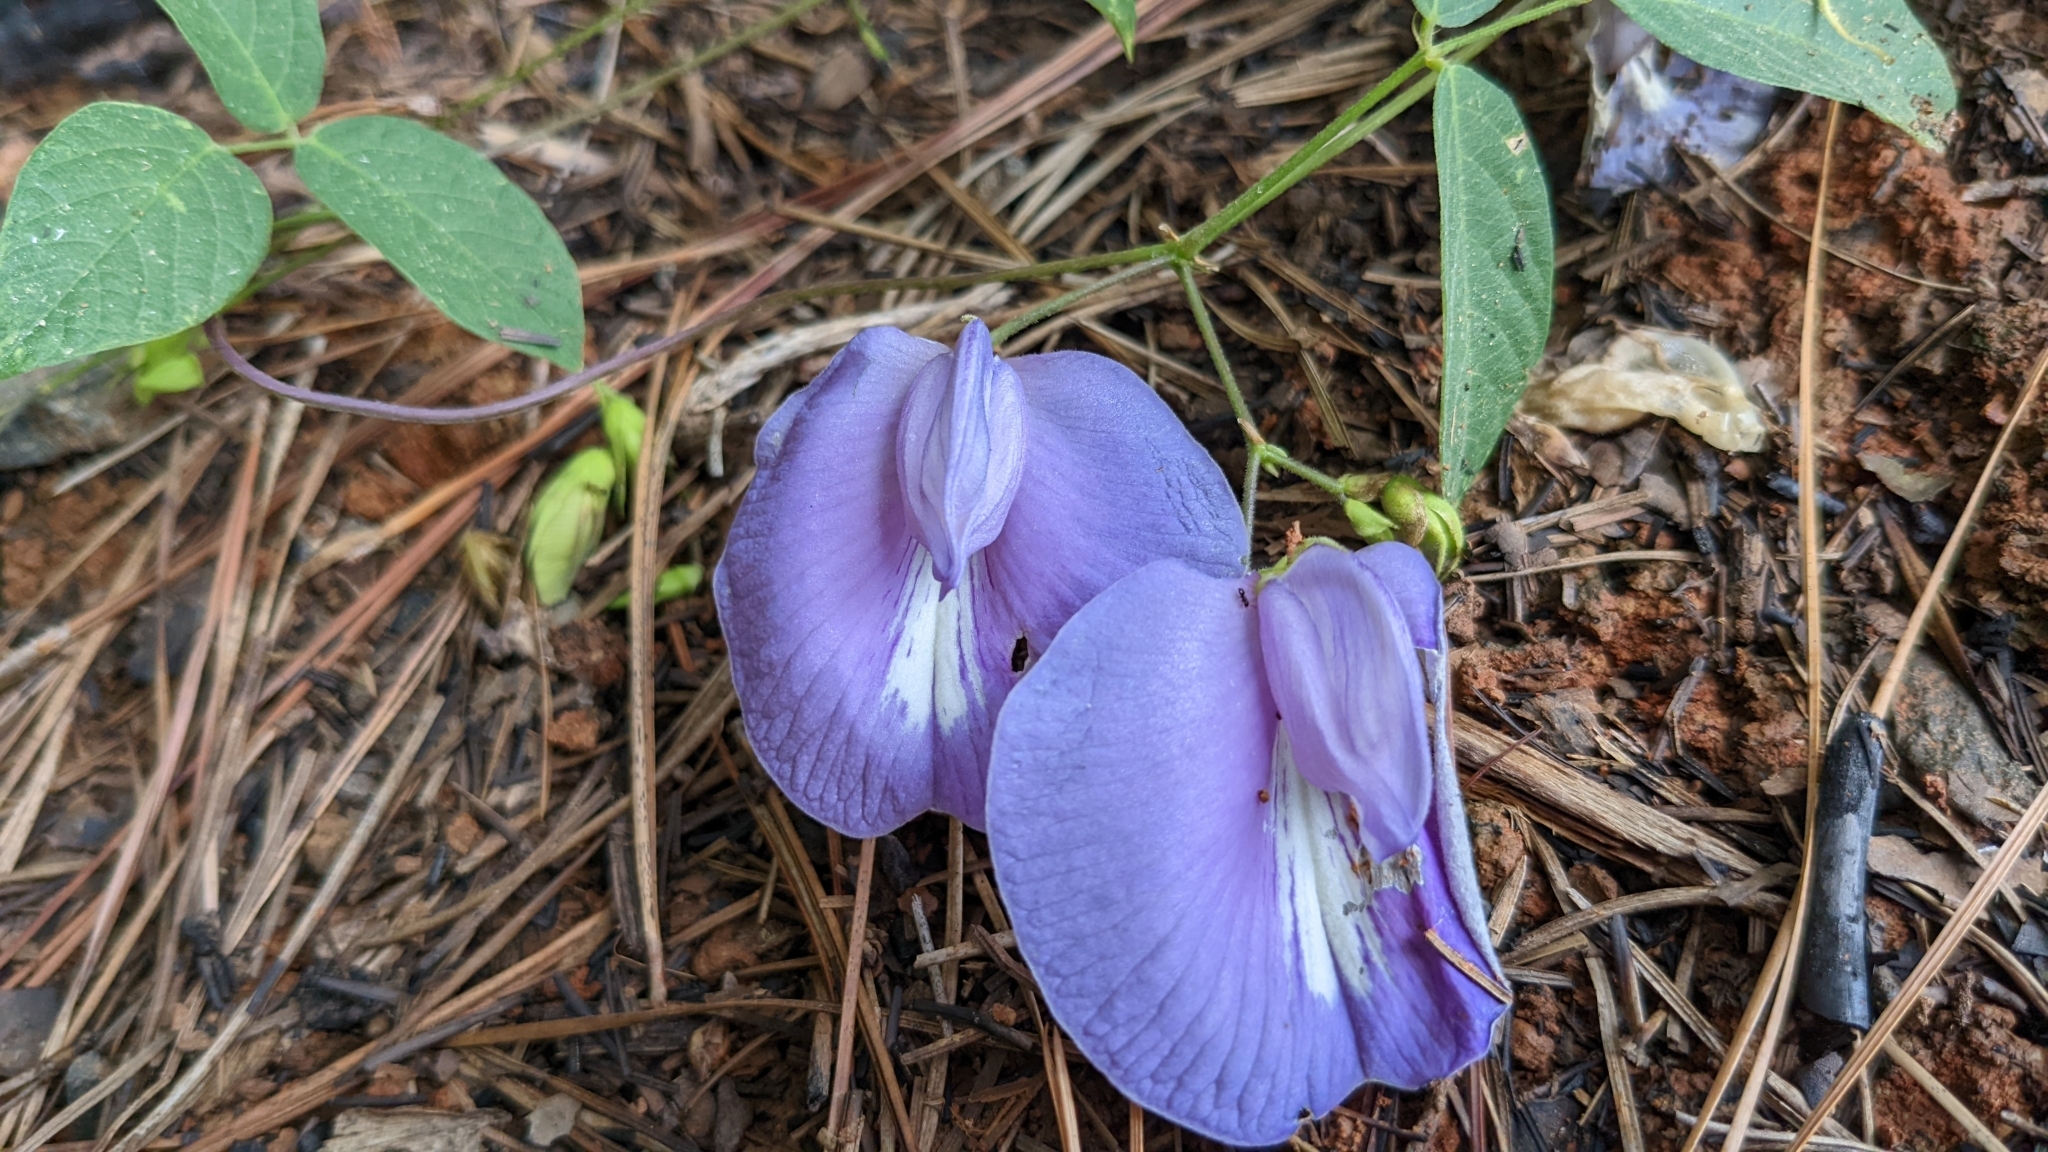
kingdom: Plantae
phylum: Tracheophyta
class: Magnoliopsida
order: Fabales
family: Fabaceae
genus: Centrosema
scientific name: Centrosema virginianum
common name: Butterfly-pea
